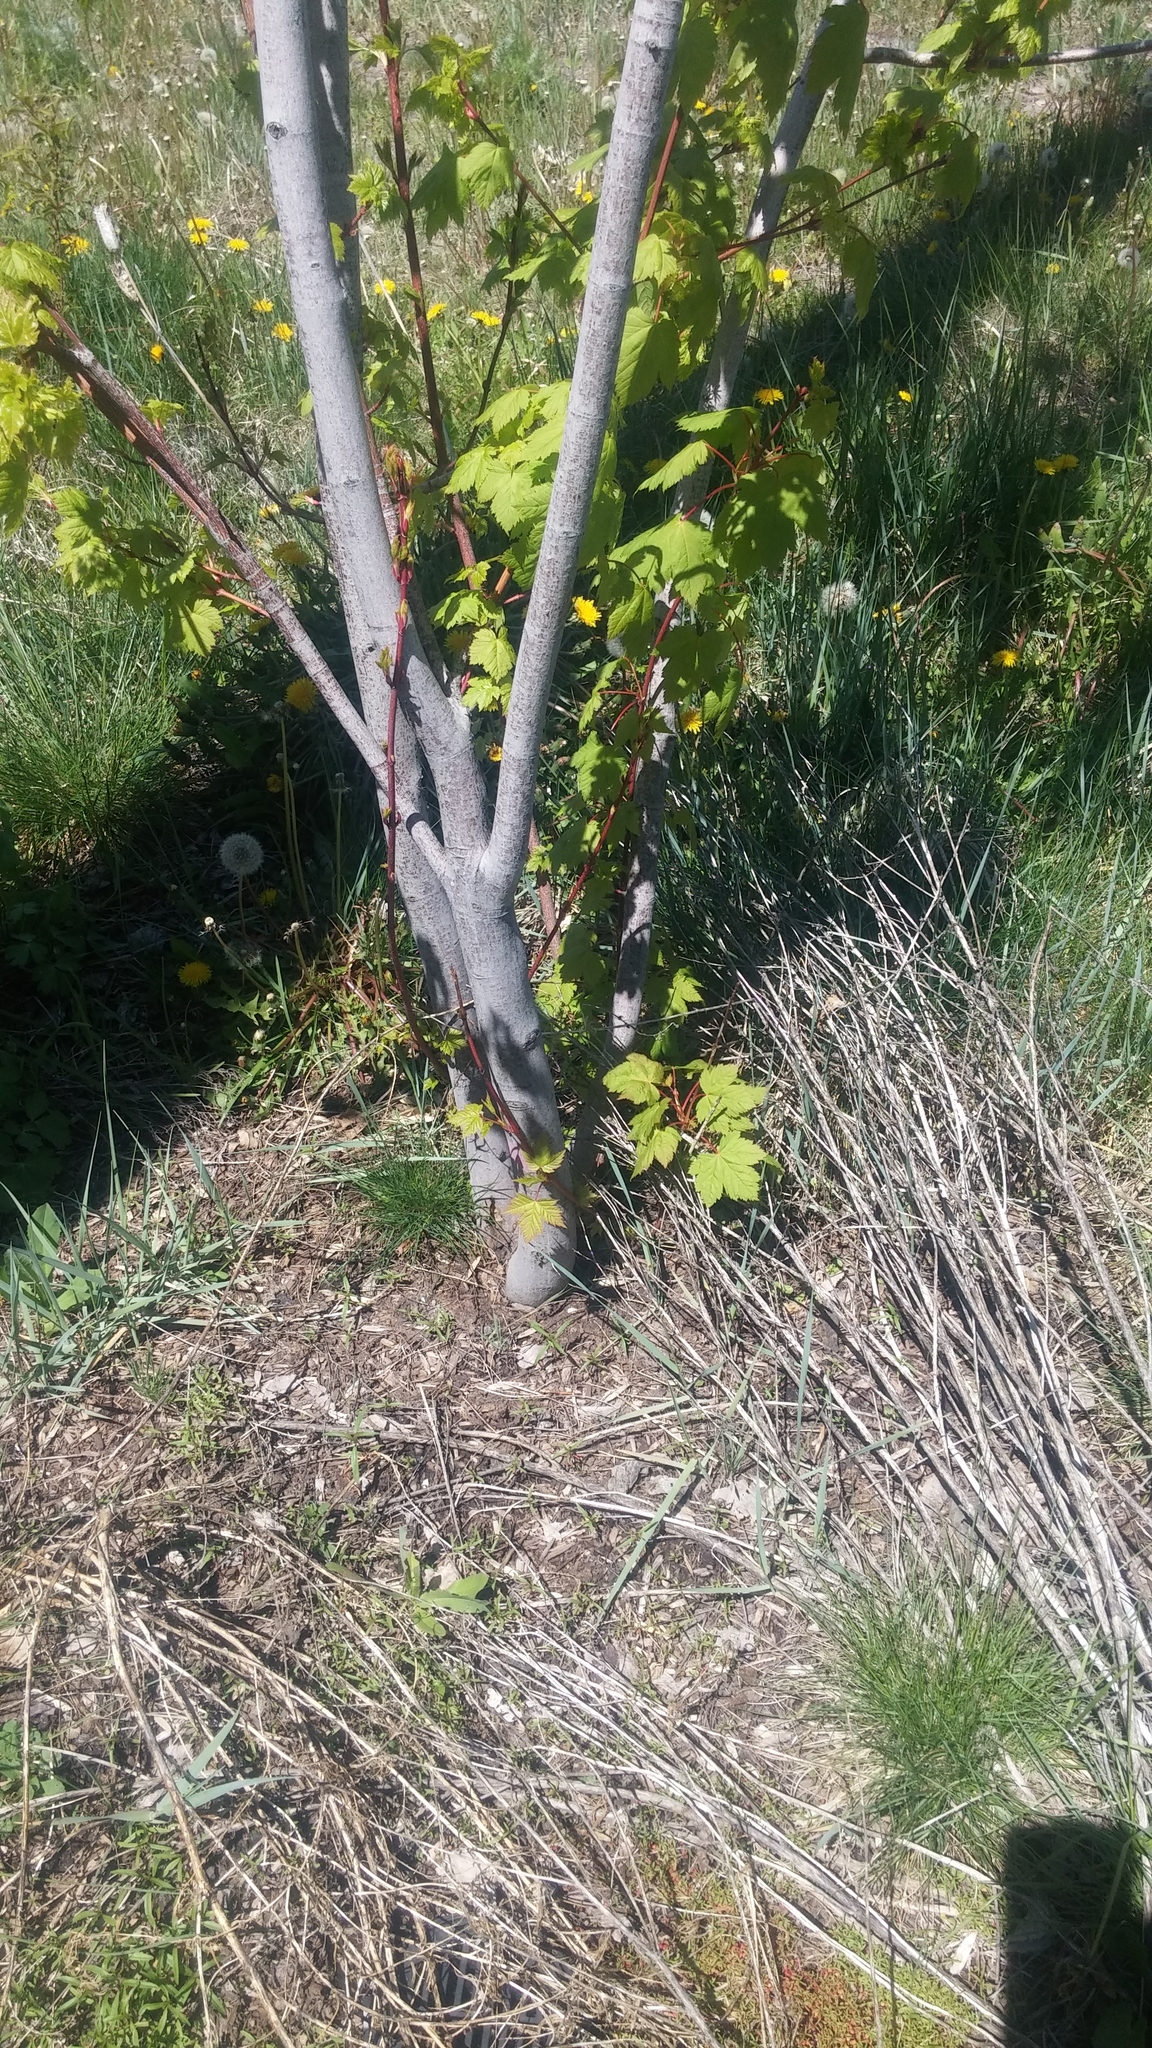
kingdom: Plantae
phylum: Tracheophyta
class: Magnoliopsida
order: Sapindales
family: Sapindaceae
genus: Acer
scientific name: Acer glabrum
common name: Rocky mountain maple
